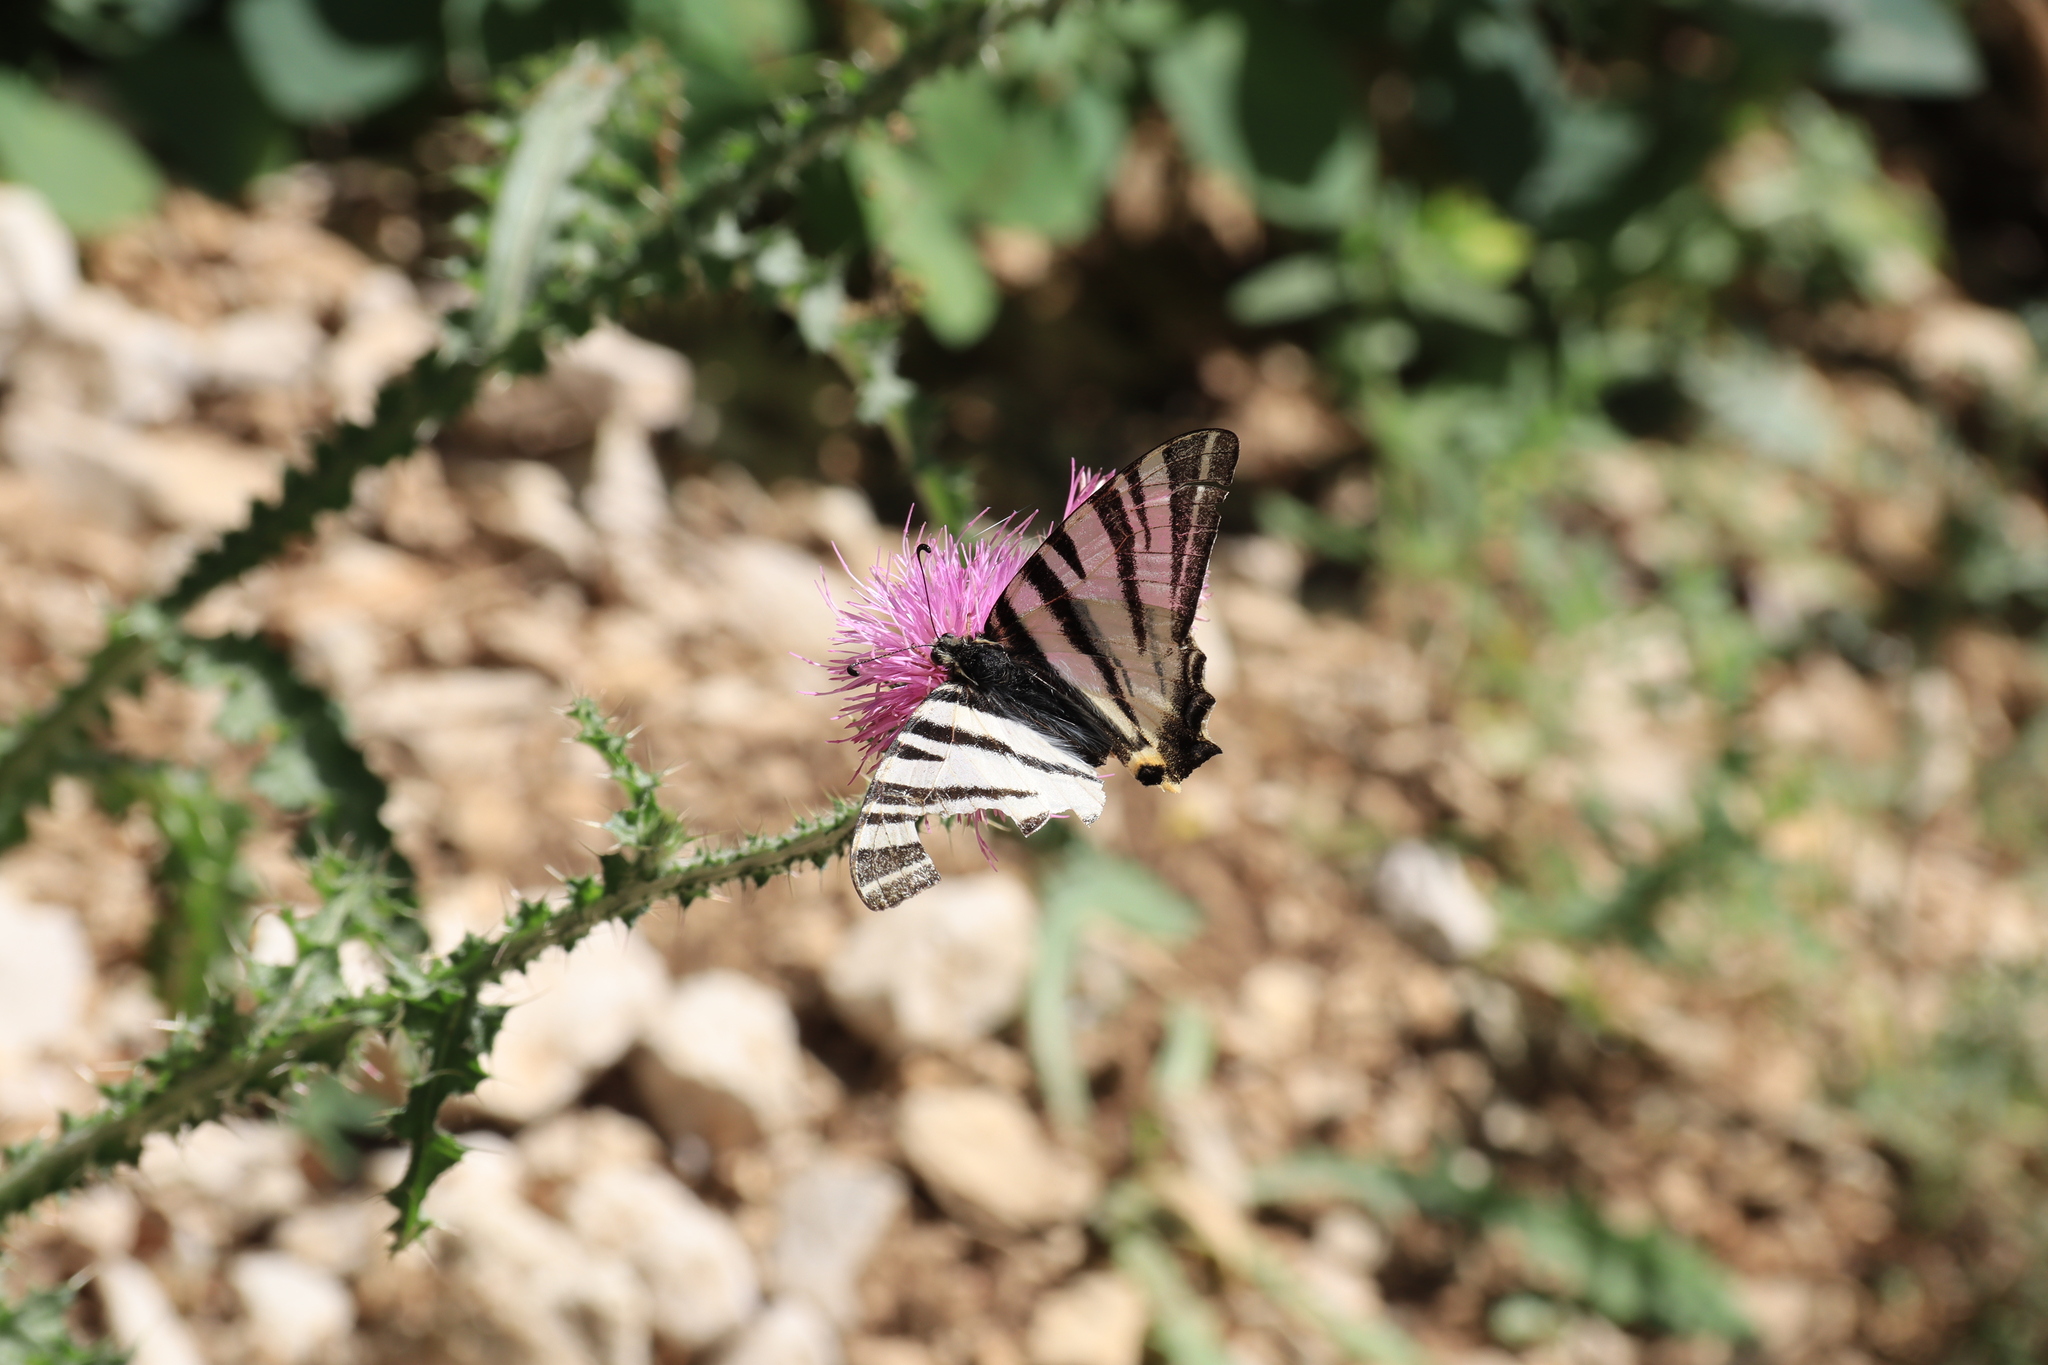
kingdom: Animalia
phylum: Arthropoda
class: Insecta
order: Lepidoptera
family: Papilionidae
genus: Iphiclides
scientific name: Iphiclides podalirius
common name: Scarce swallowtail
